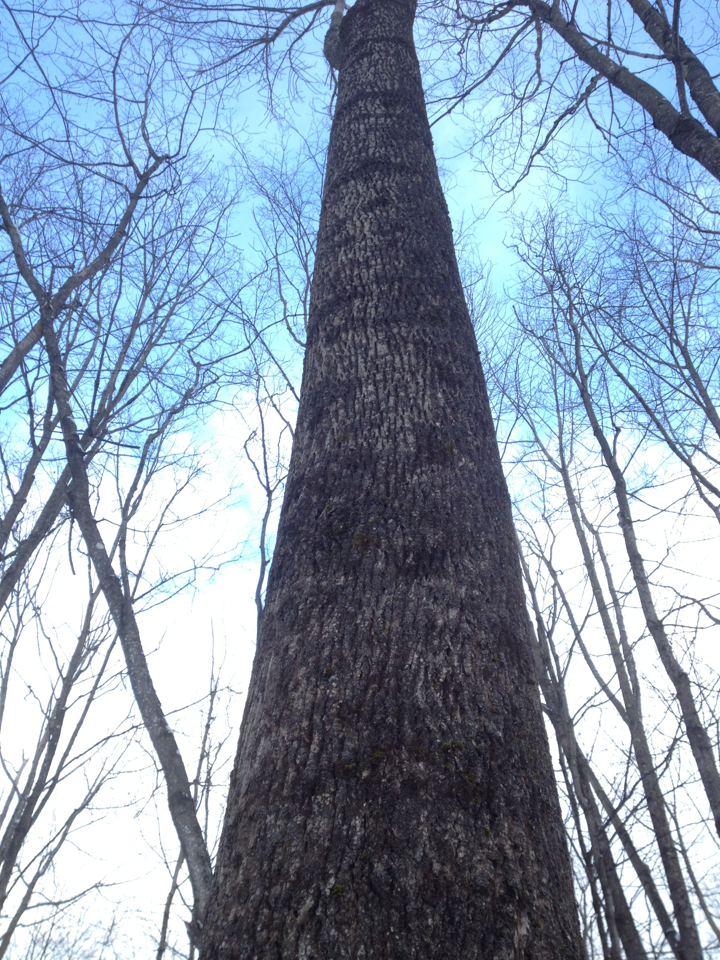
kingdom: Plantae
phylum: Tracheophyta
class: Magnoliopsida
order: Lamiales
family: Oleaceae
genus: Fraxinus
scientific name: Fraxinus americana
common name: White ash
